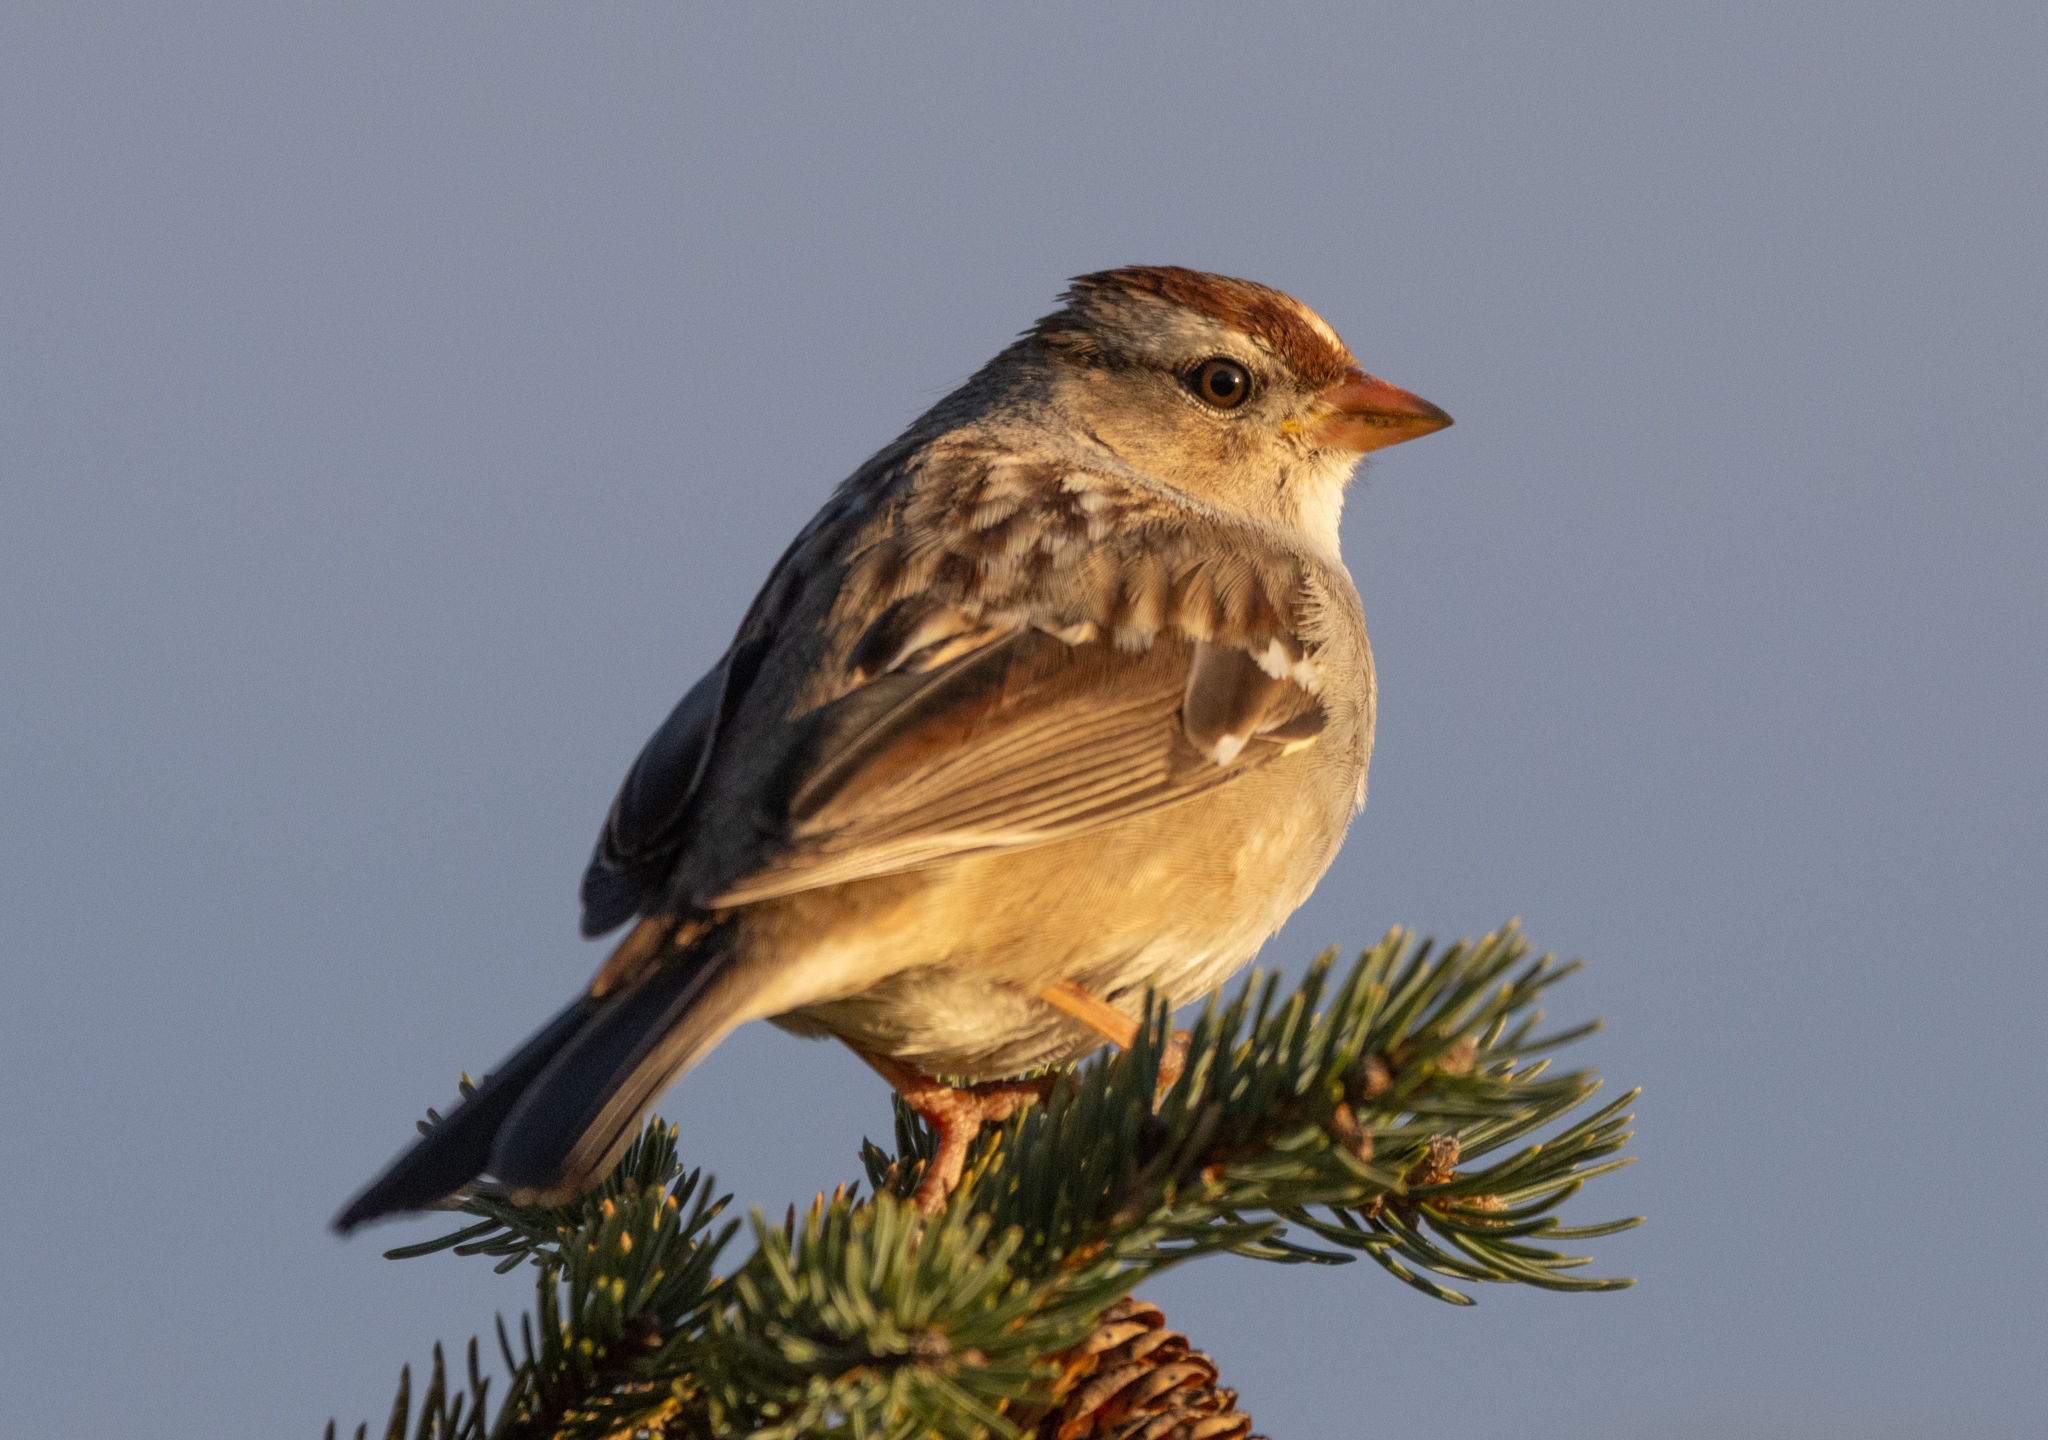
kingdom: Animalia
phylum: Chordata
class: Aves
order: Passeriformes
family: Passerellidae
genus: Zonotrichia
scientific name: Zonotrichia leucophrys
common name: White-crowned sparrow
